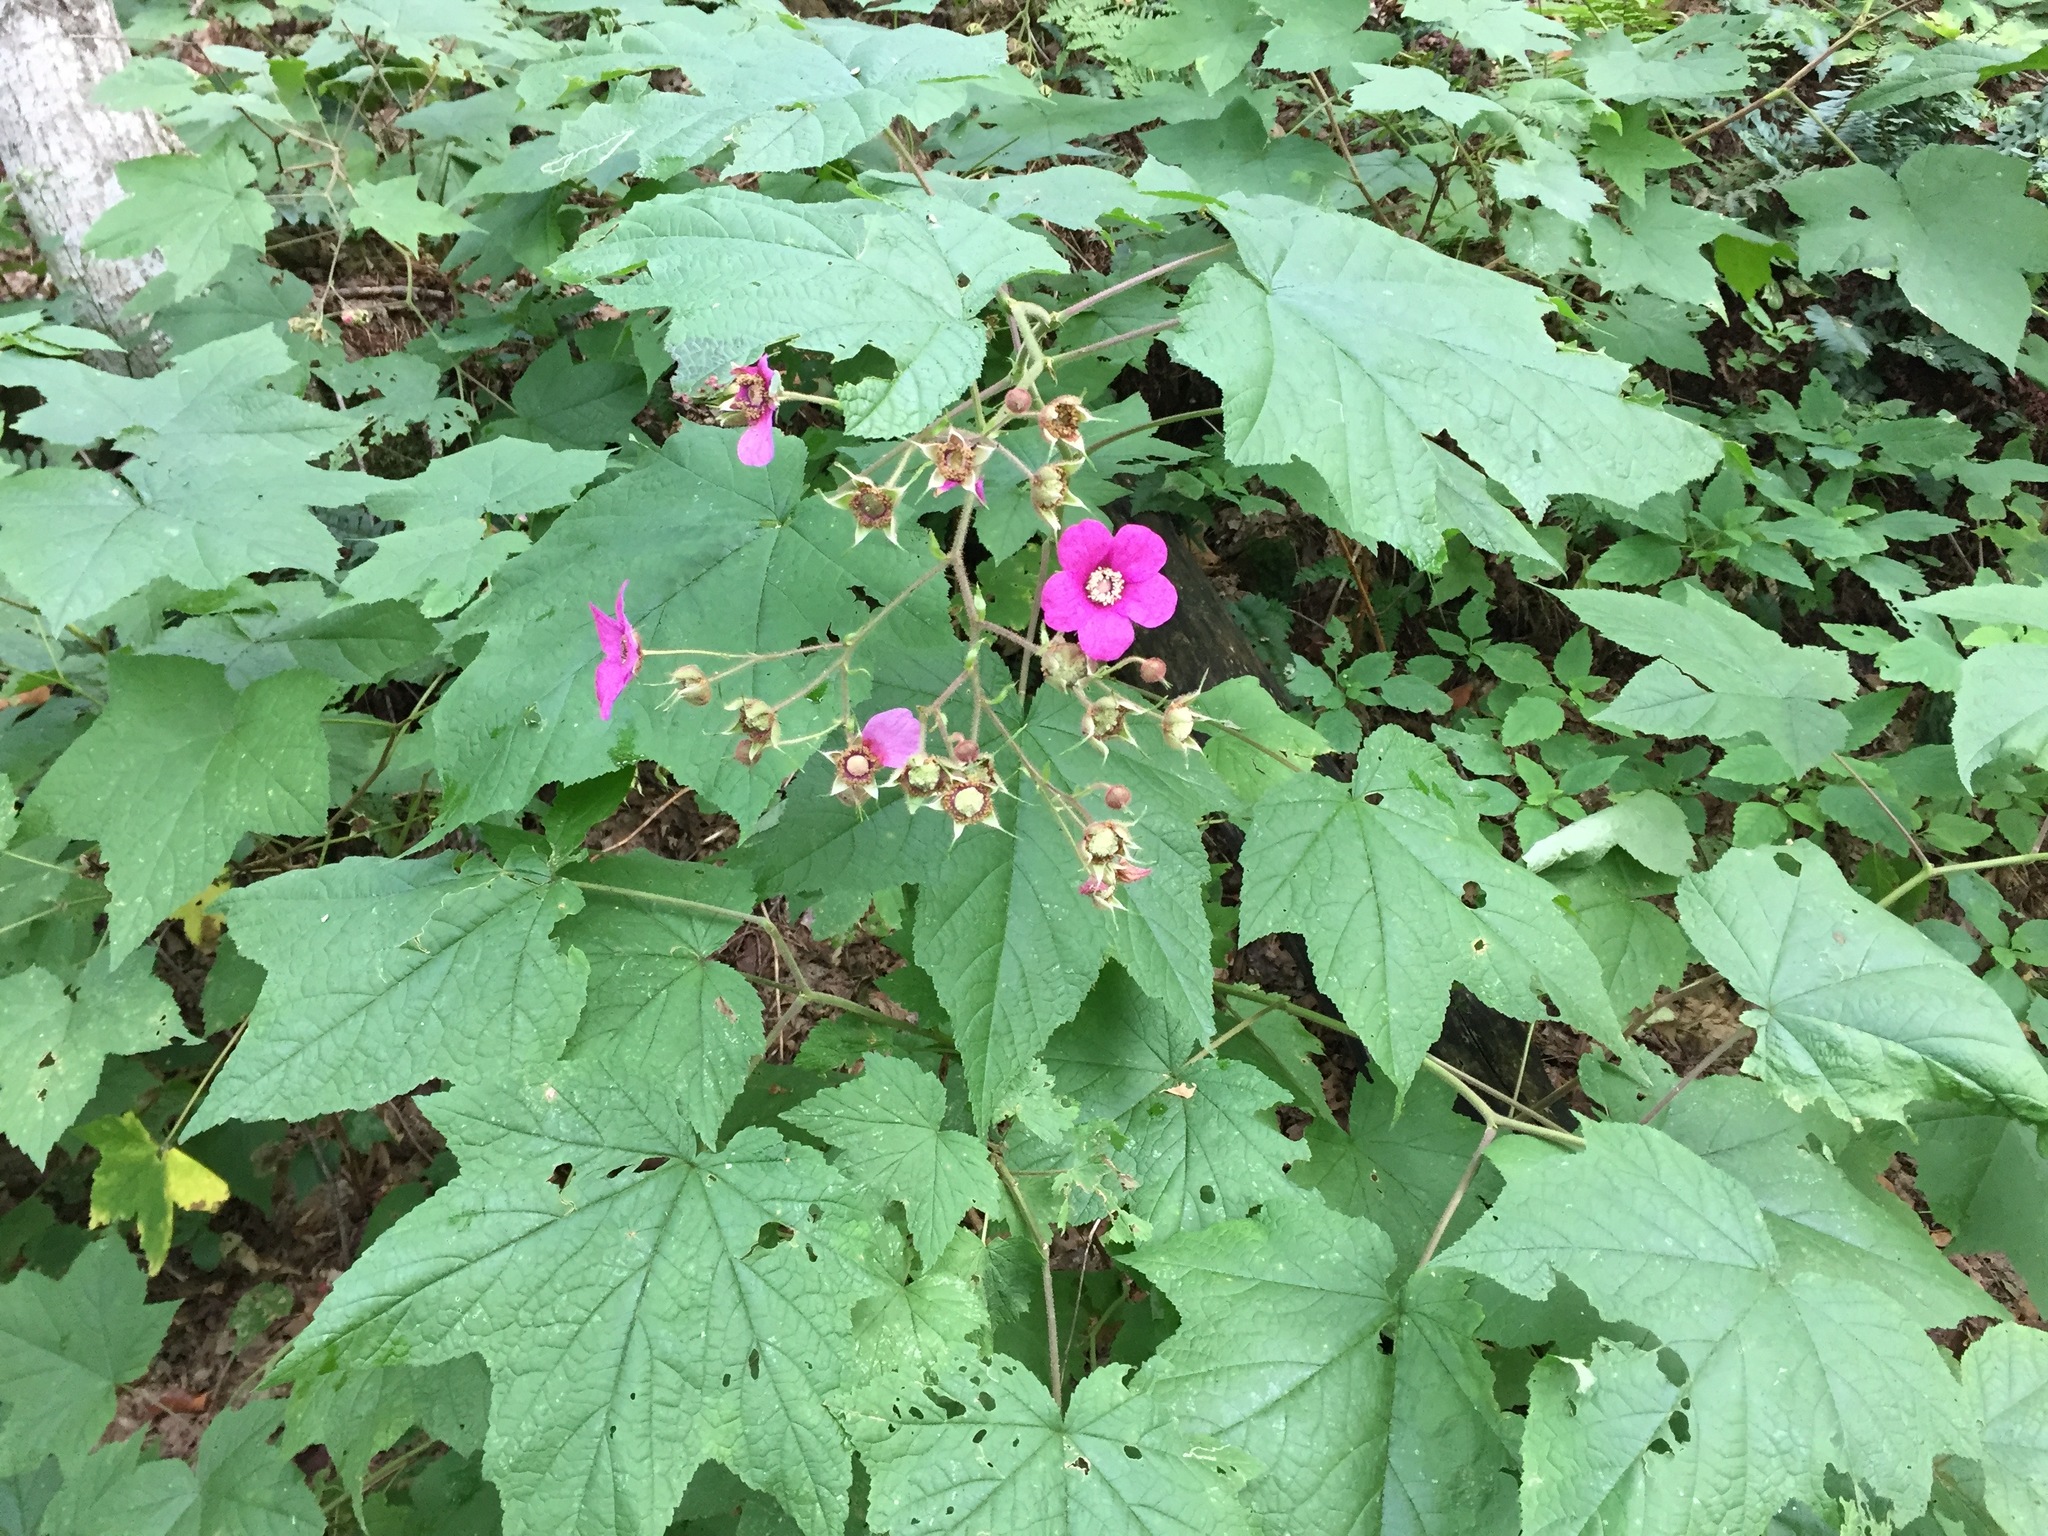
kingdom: Plantae
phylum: Tracheophyta
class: Magnoliopsida
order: Rosales
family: Rosaceae
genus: Rubus
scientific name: Rubus odoratus
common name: Purple-flowered raspberry
